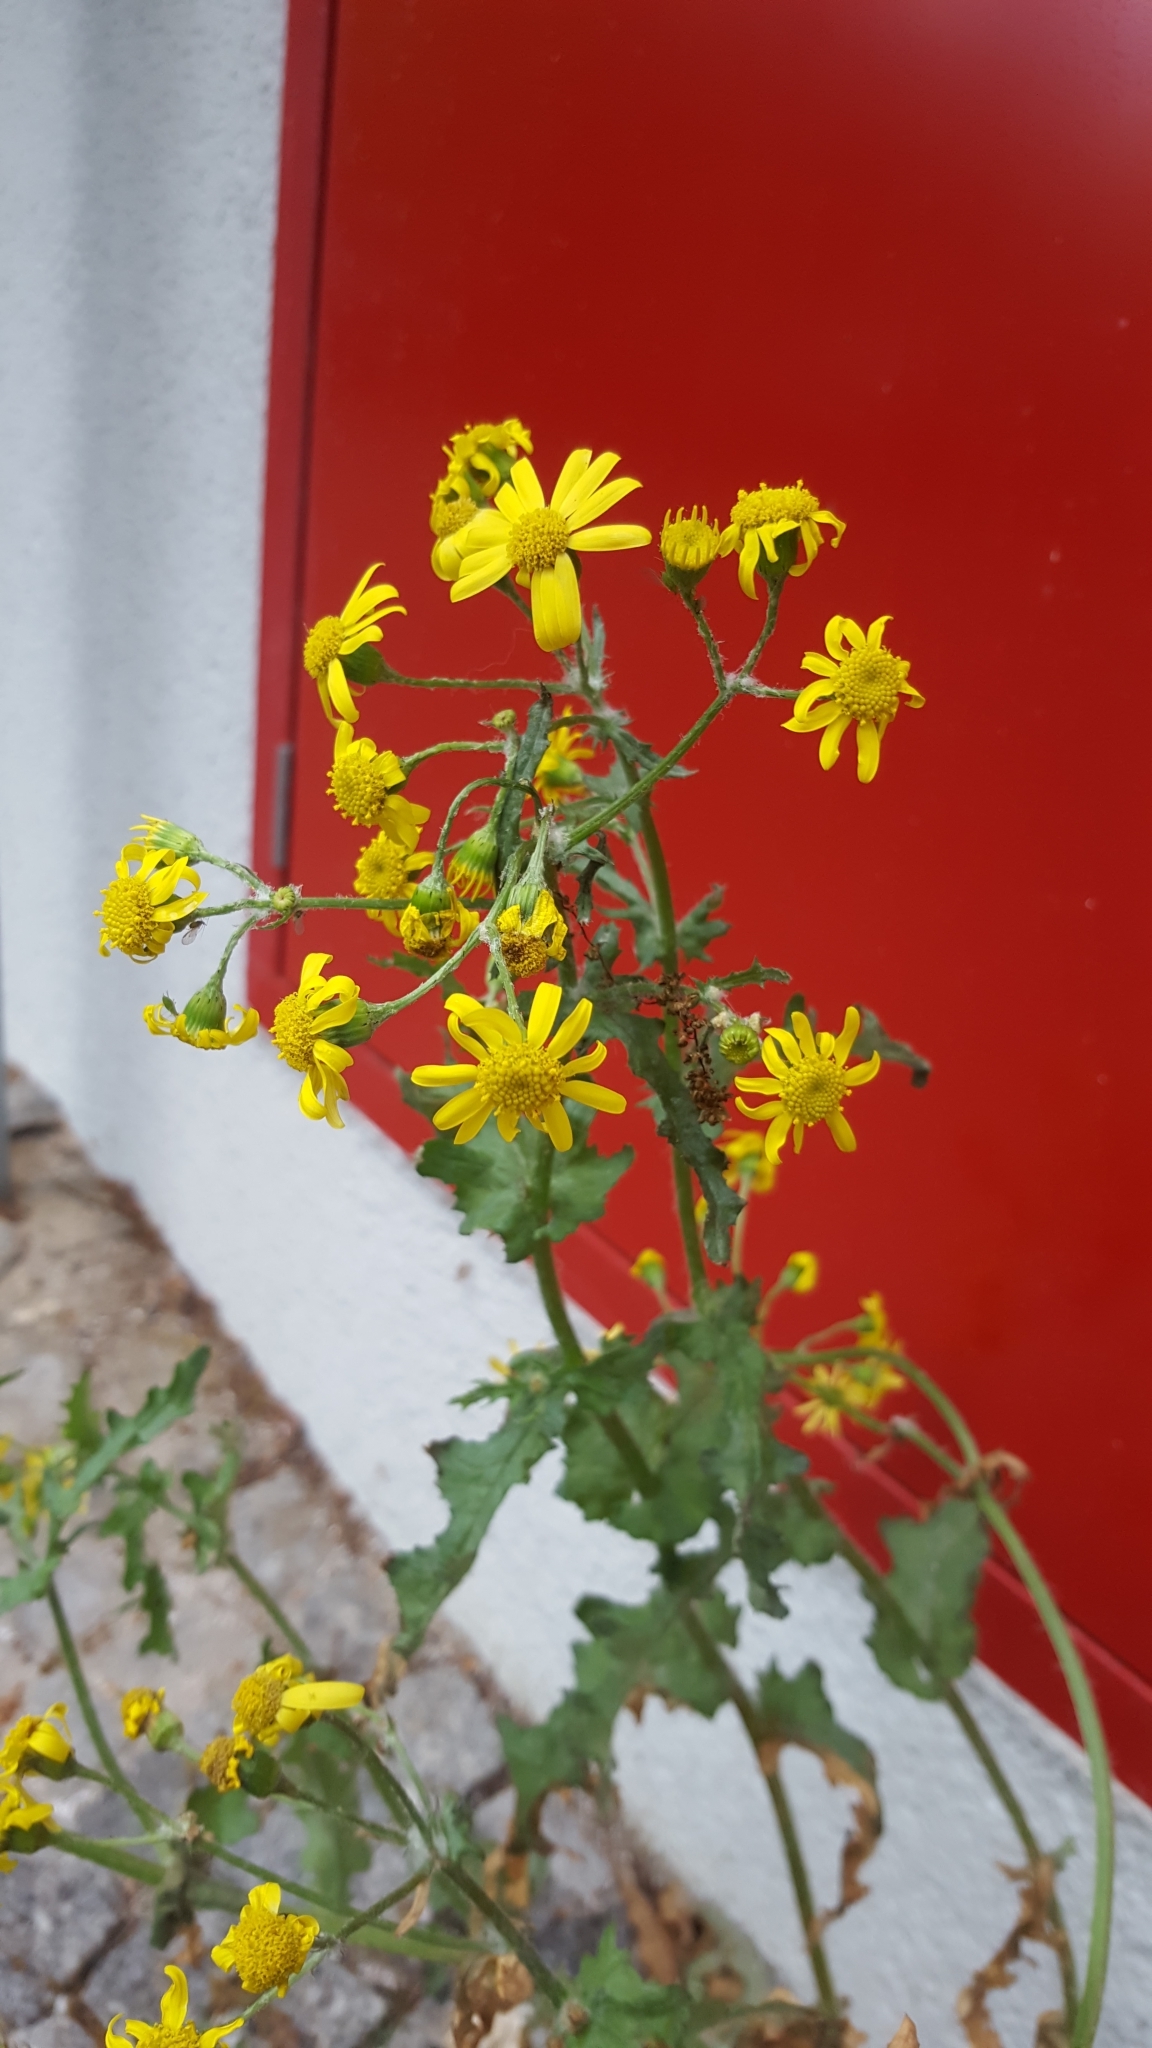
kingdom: Plantae
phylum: Tracheophyta
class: Magnoliopsida
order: Asterales
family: Asteraceae
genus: Jacobaea
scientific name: Jacobaea vulgaris
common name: Stinking willie
